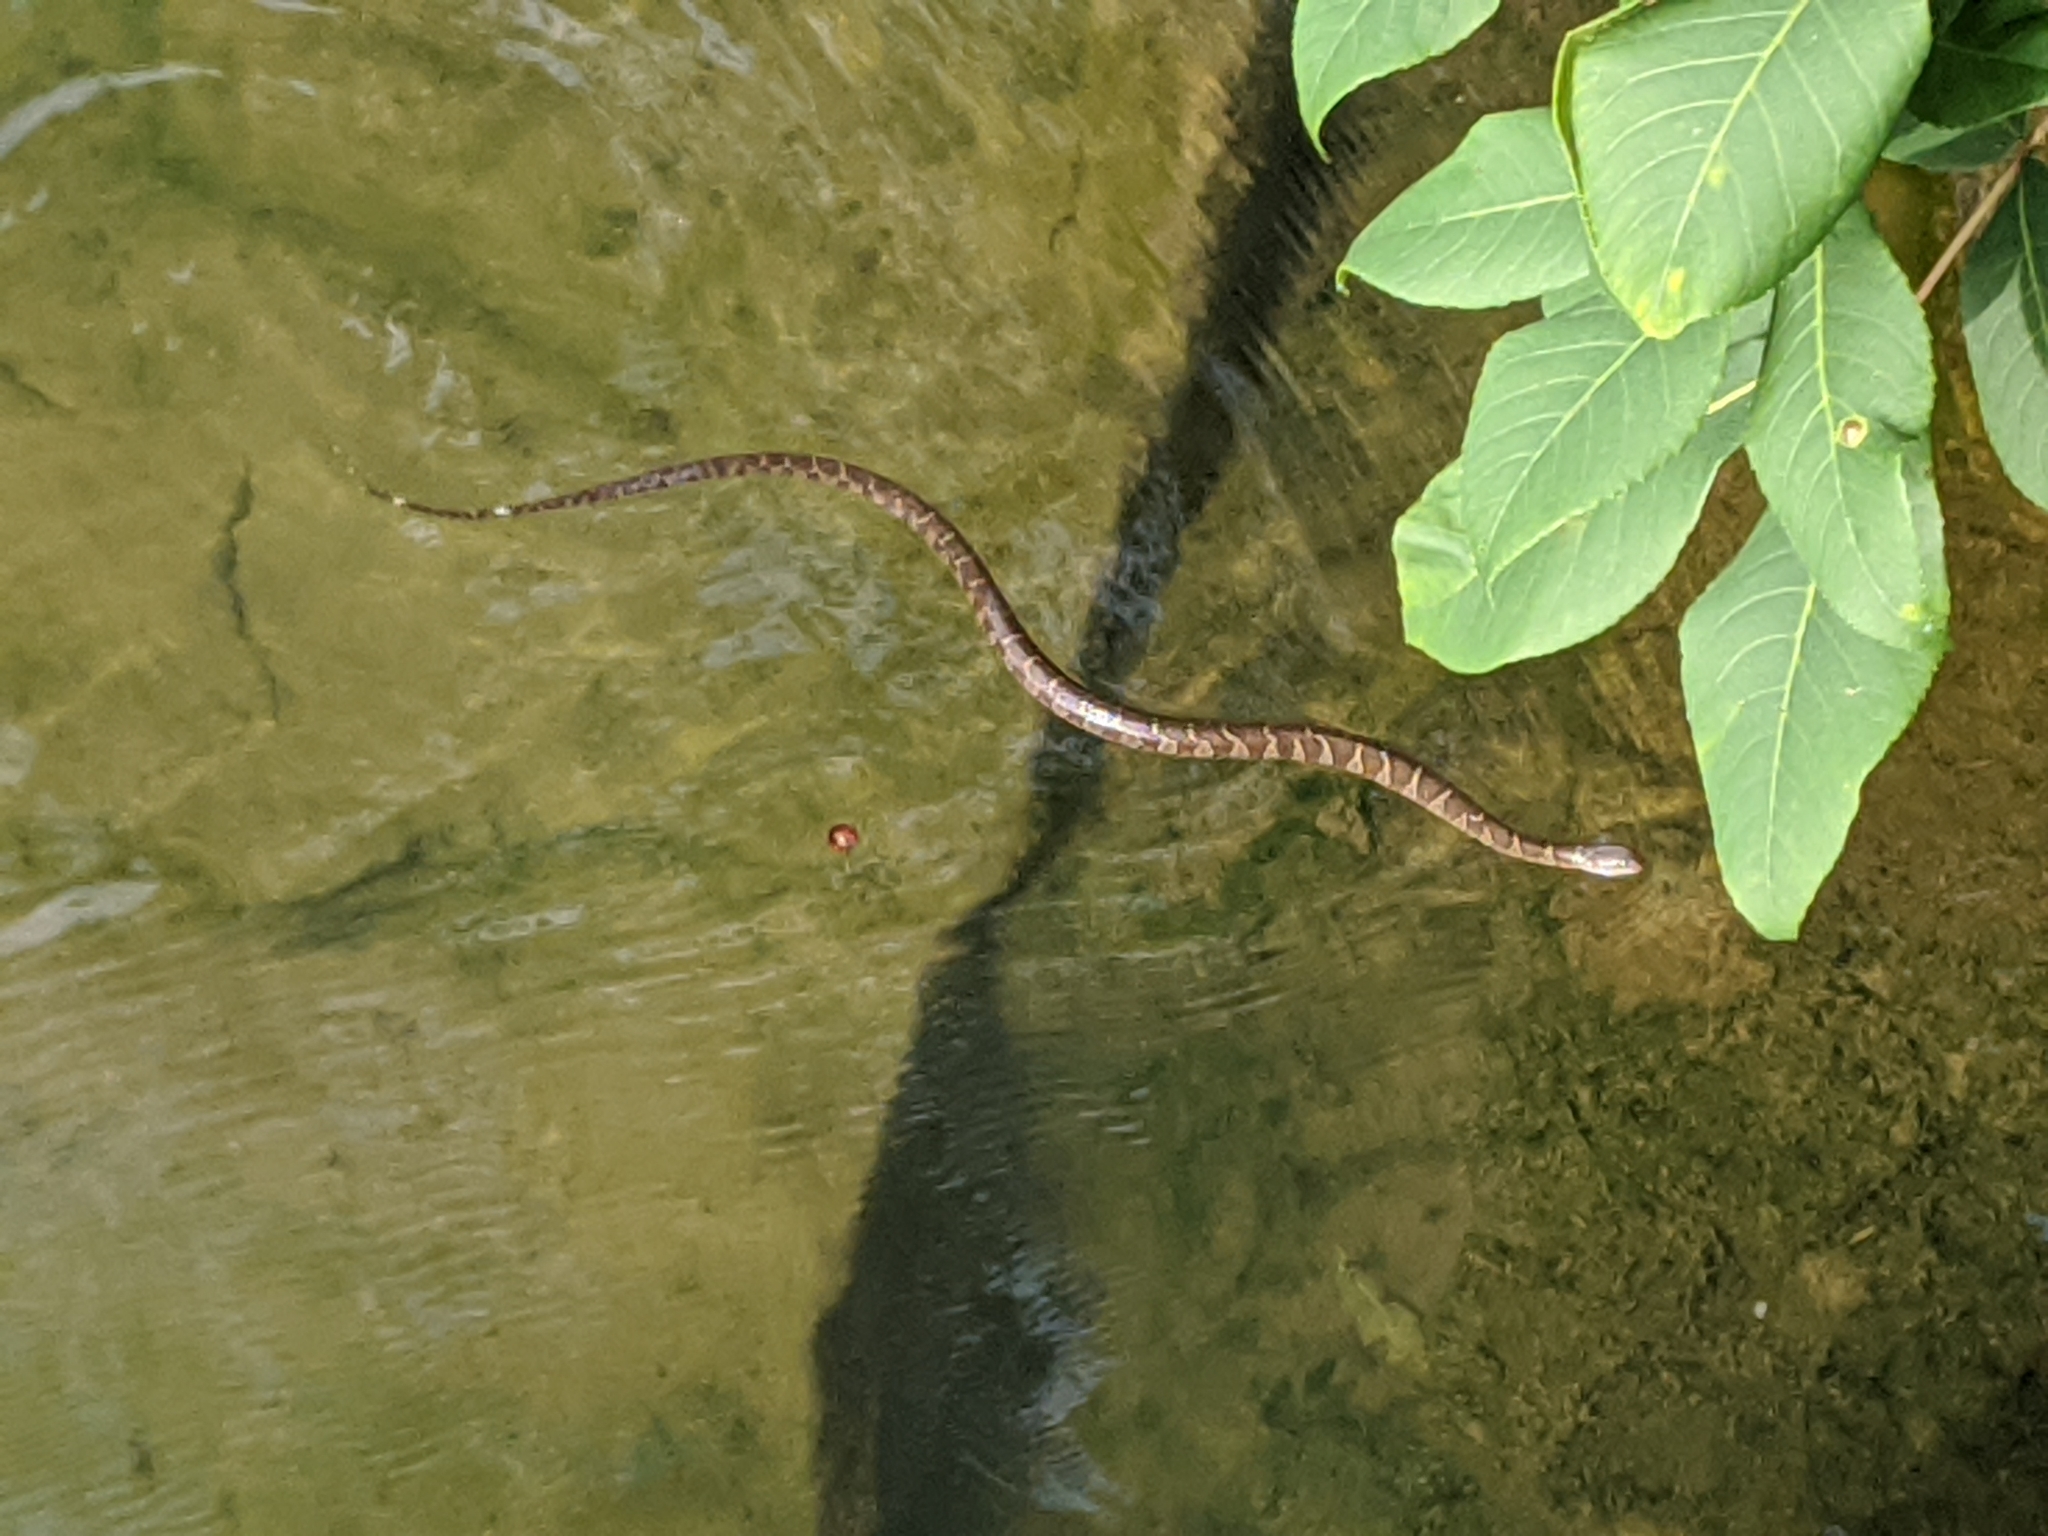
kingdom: Animalia
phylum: Chordata
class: Squamata
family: Colubridae
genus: Nerodia
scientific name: Nerodia sipedon
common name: Northern water snake
